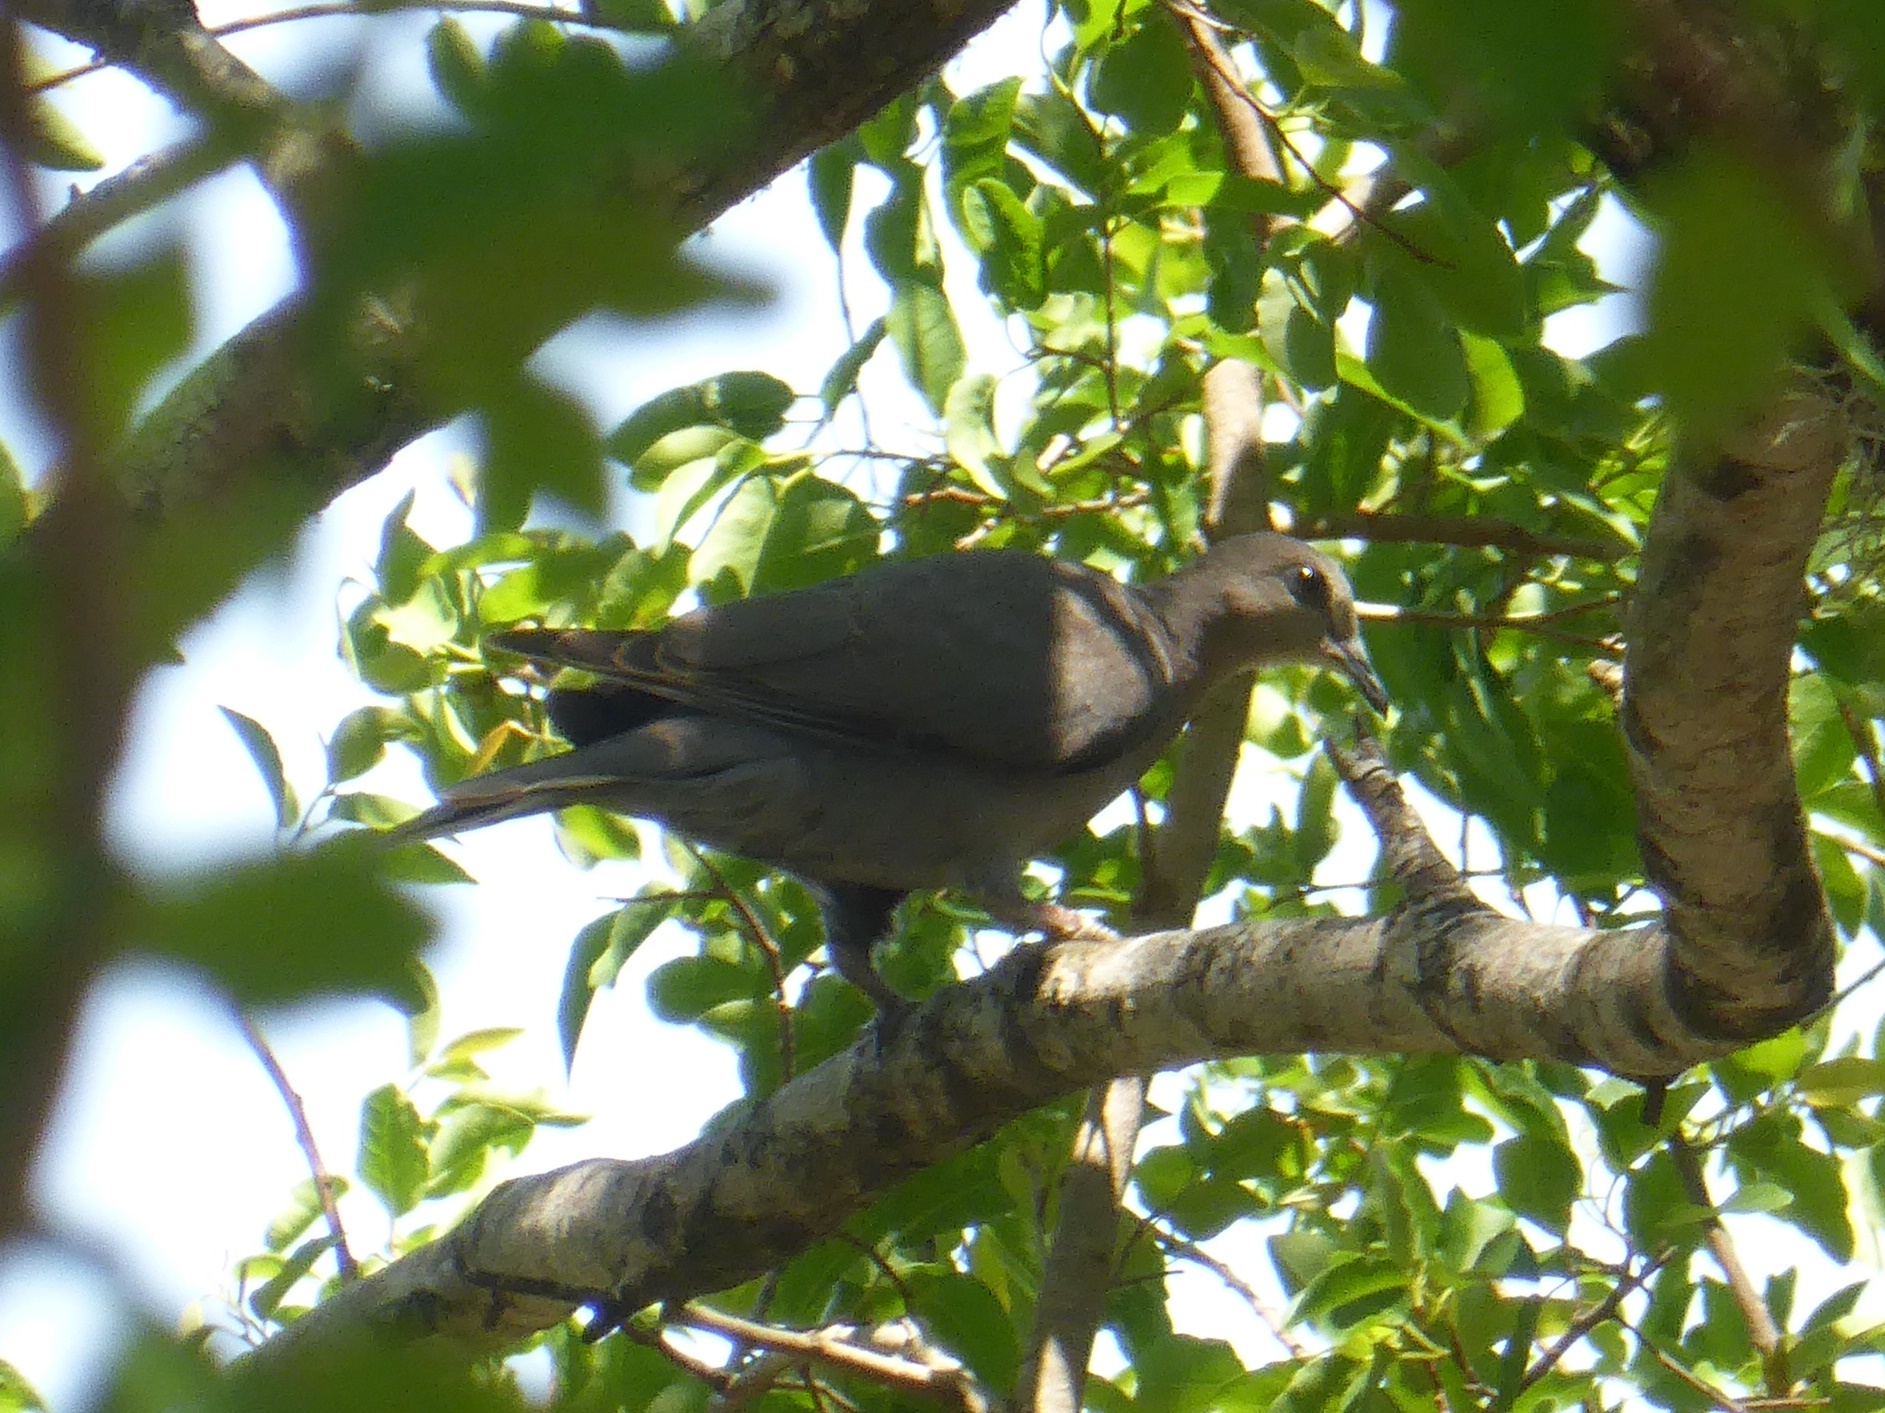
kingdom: Animalia
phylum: Chordata
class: Aves
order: Columbiformes
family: Columbidae
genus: Streptopelia
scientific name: Streptopelia semitorquata
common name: Red-eyed dove
